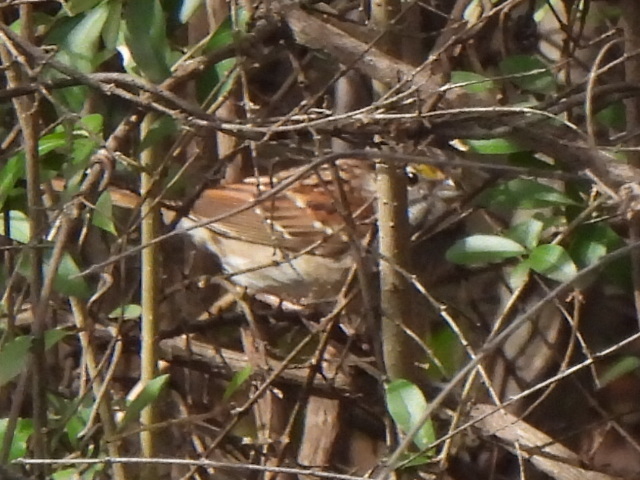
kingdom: Animalia
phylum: Chordata
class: Aves
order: Passeriformes
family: Passerellidae
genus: Zonotrichia
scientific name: Zonotrichia albicollis
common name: White-throated sparrow
